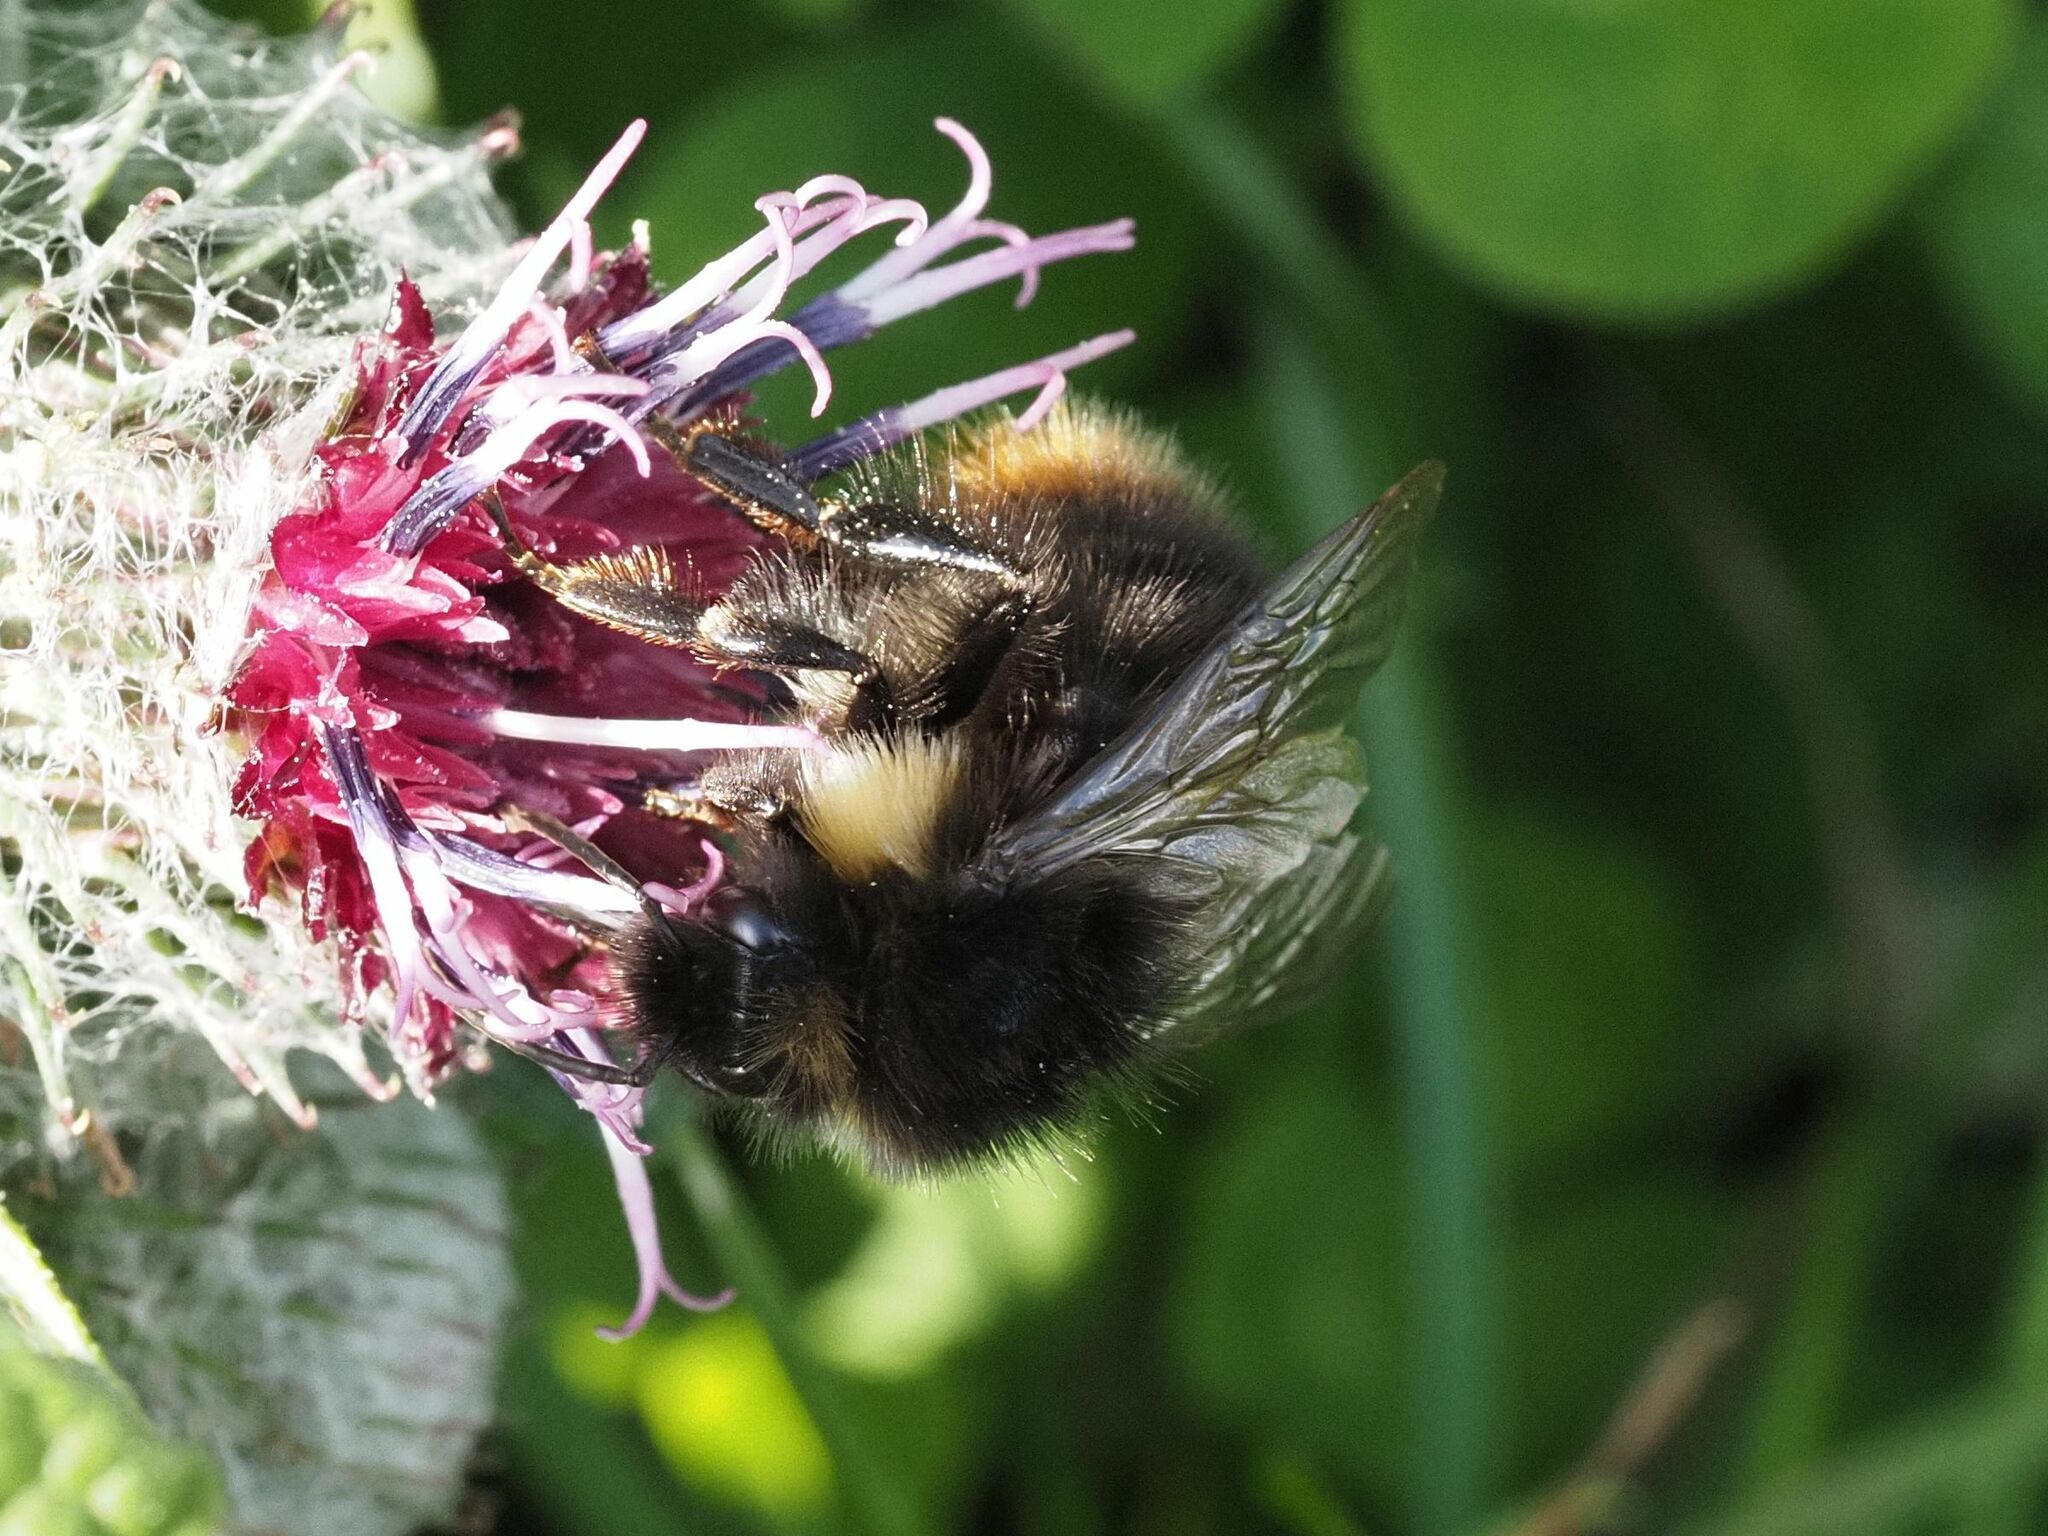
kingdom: Animalia
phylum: Arthropoda
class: Insecta
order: Hymenoptera
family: Apidae
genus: Bombus
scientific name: Bombus soroeensis
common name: Broken-belted humble-bee
